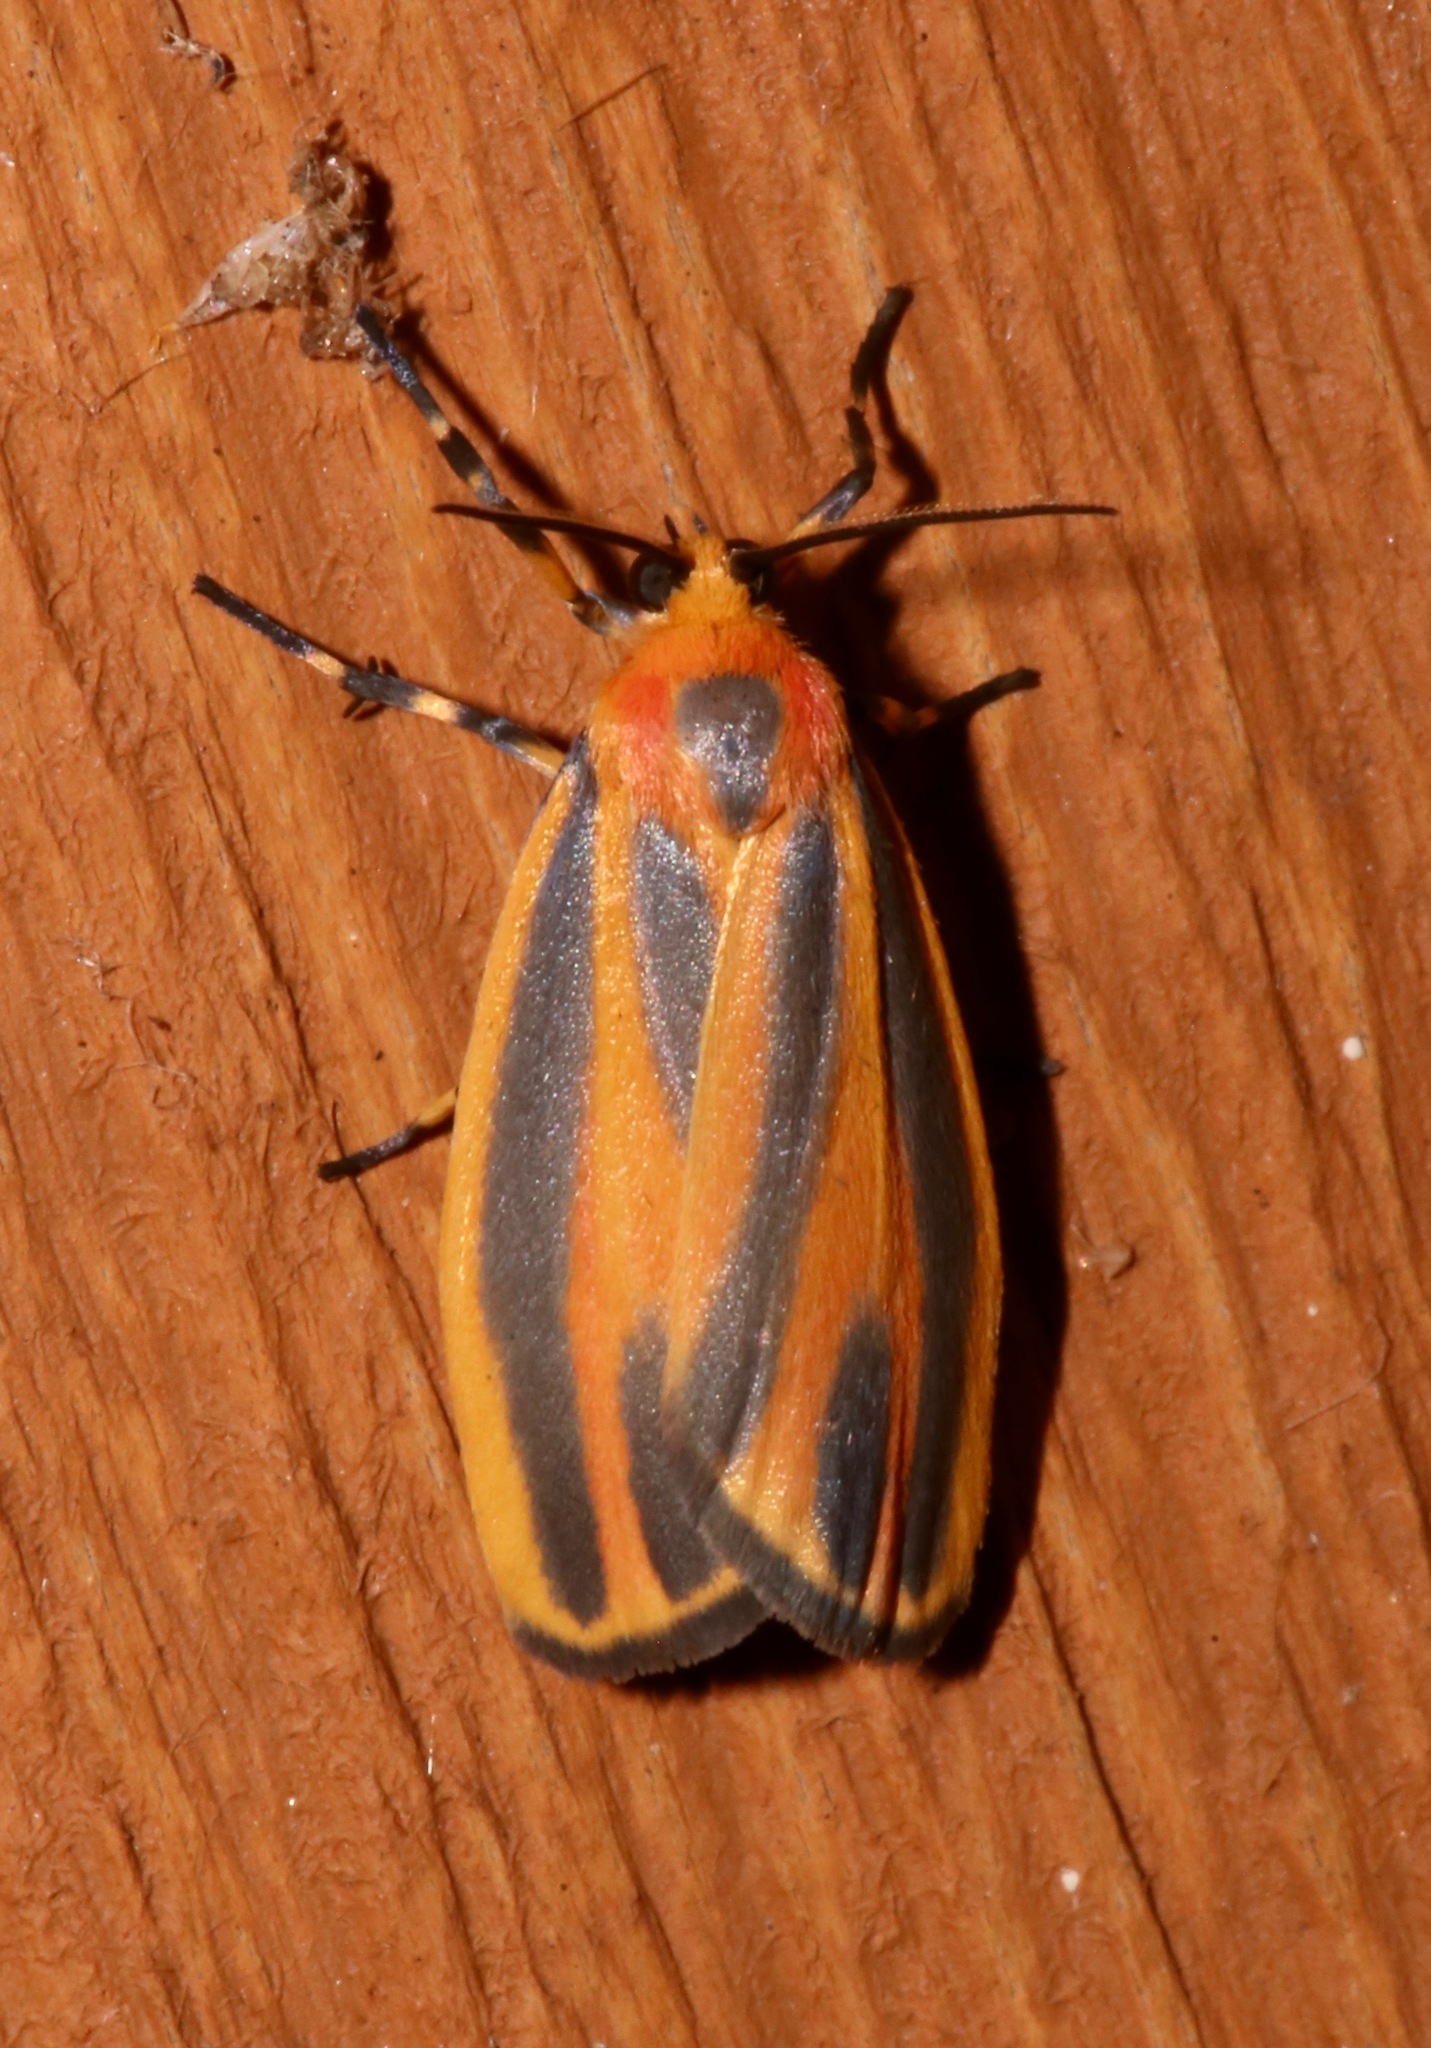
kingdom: Animalia
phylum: Arthropoda
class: Insecta
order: Lepidoptera
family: Erebidae
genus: Hypoprepia
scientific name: Hypoprepia fucosa
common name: Painted lichen moth
